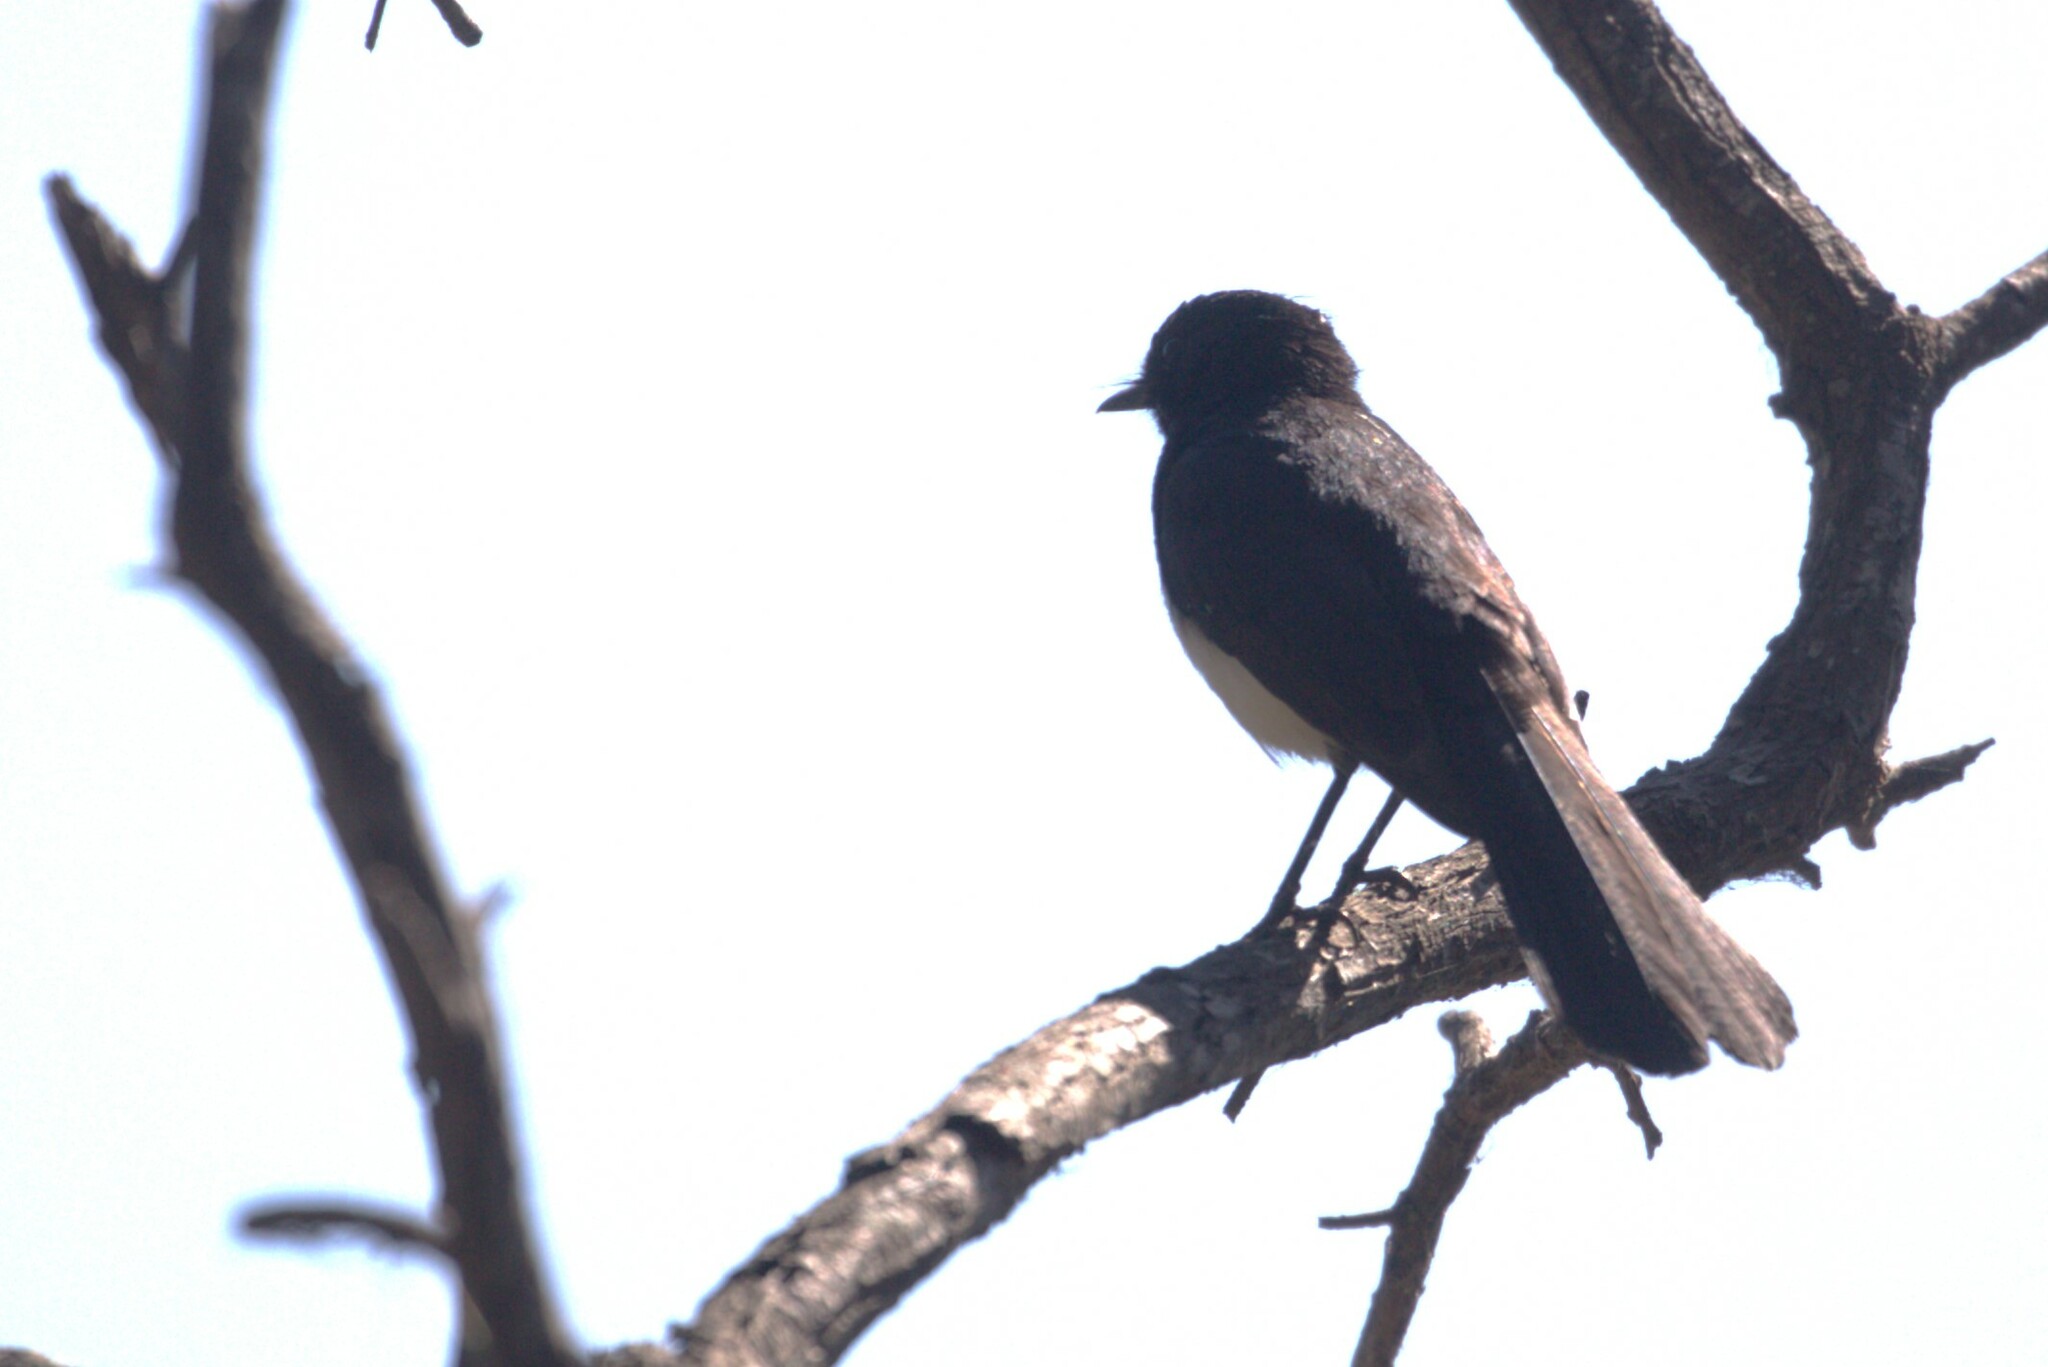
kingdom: Animalia
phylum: Chordata
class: Aves
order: Passeriformes
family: Rhipiduridae
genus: Rhipidura
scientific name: Rhipidura leucophrys
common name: Willie wagtail
